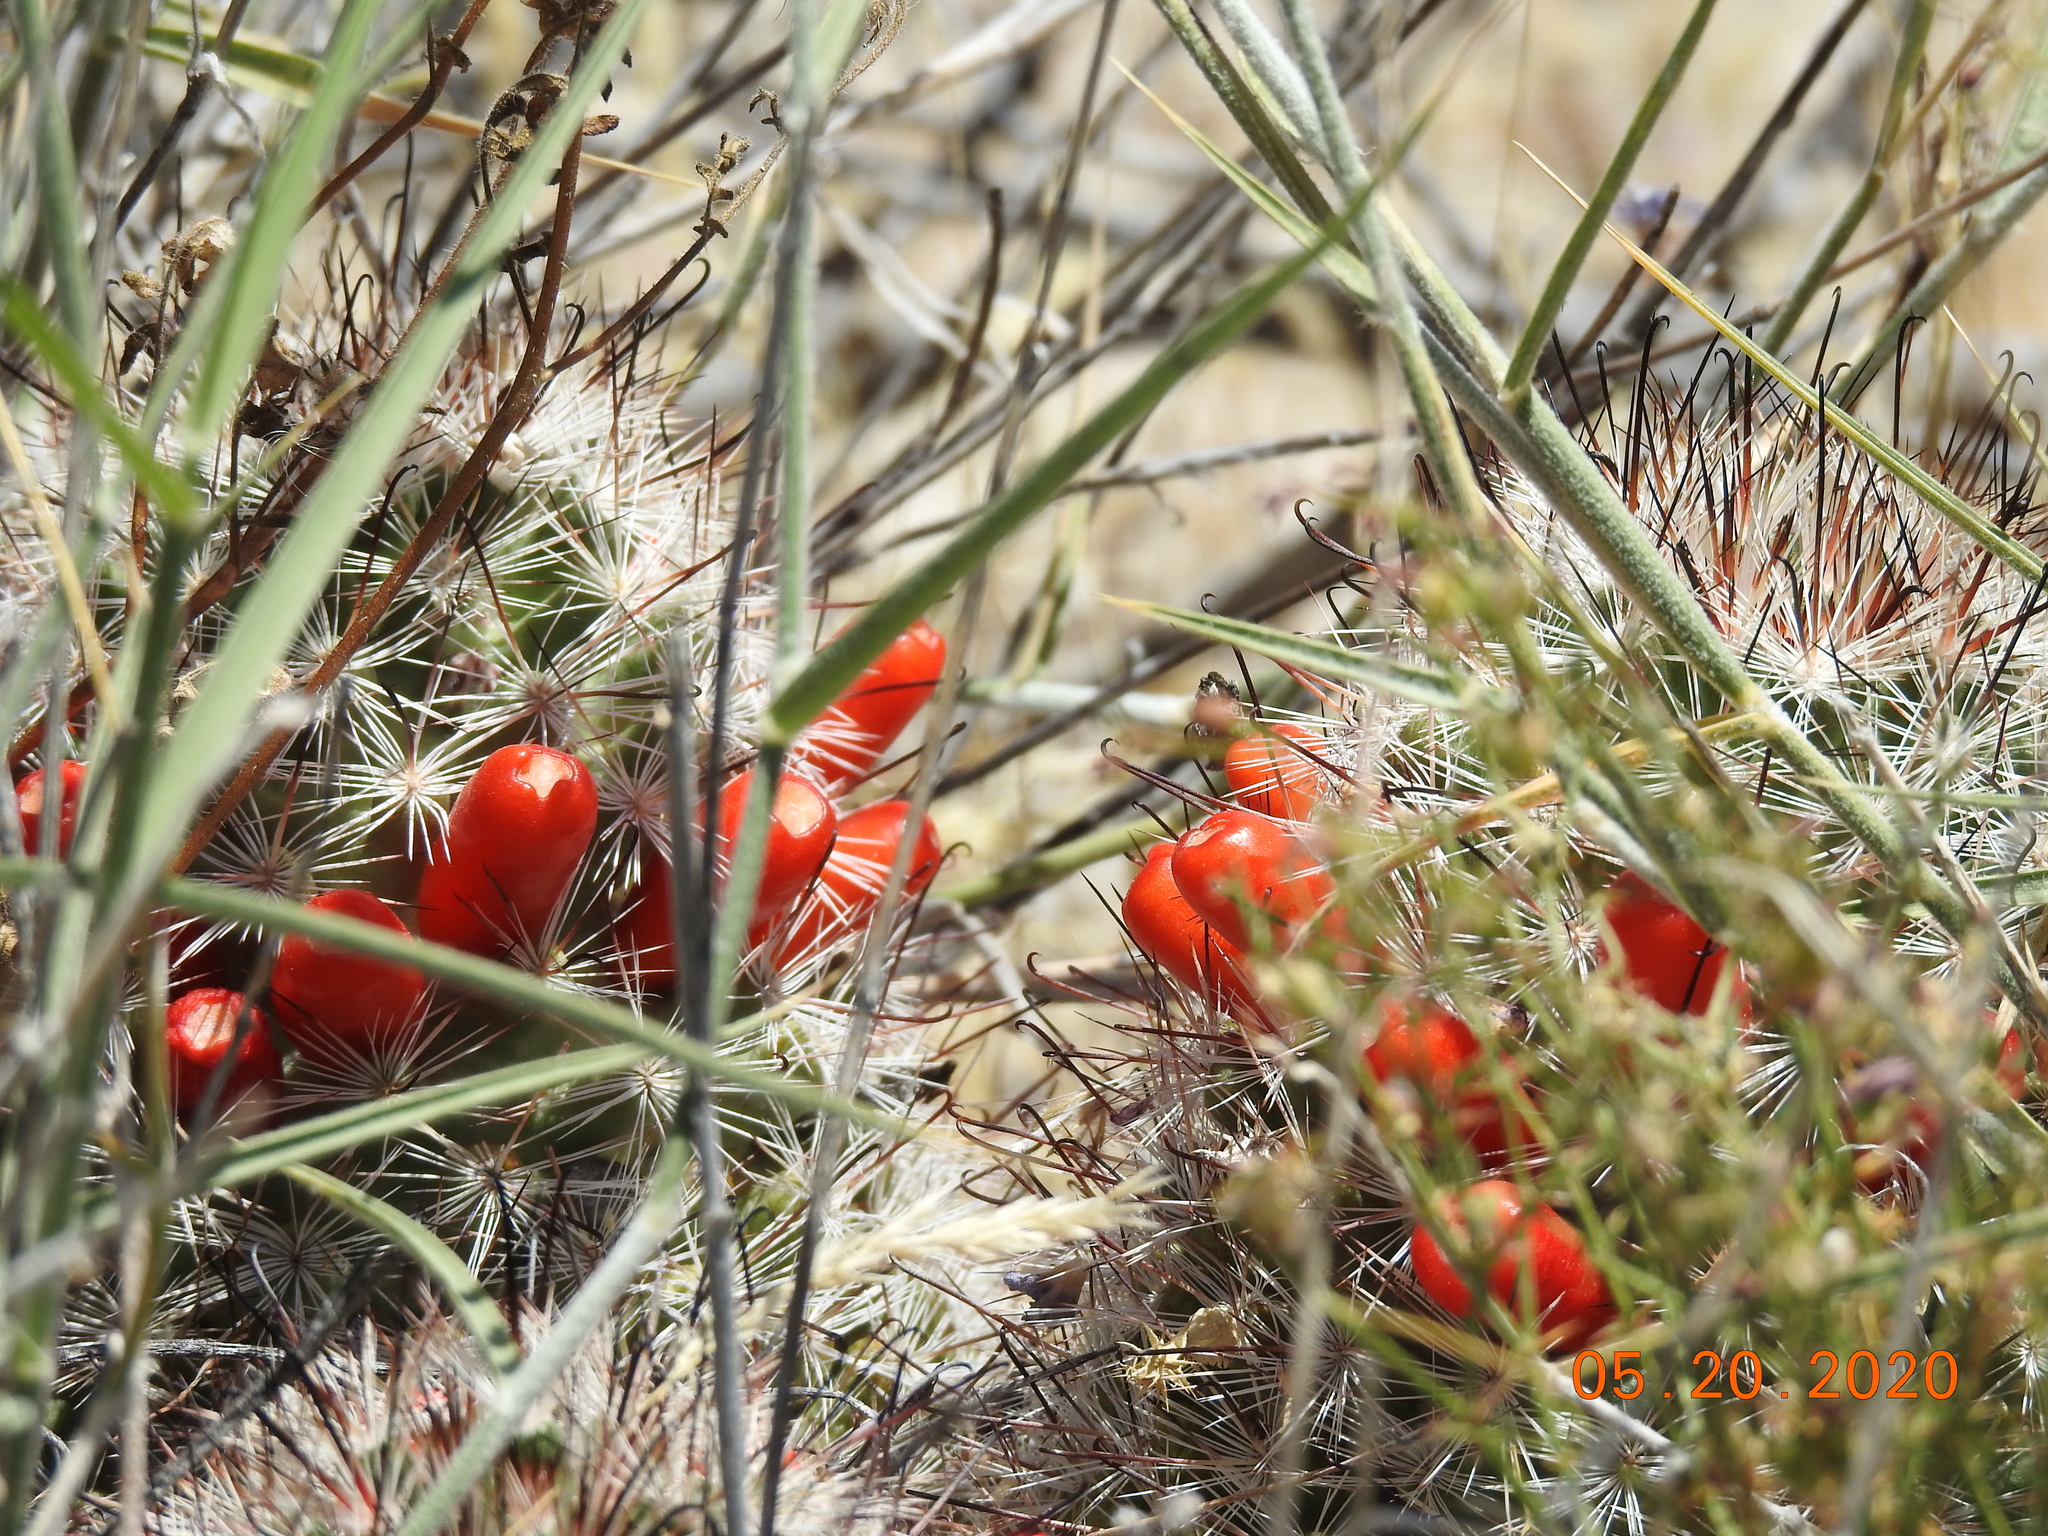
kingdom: Plantae
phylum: Tracheophyta
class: Magnoliopsida
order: Caryophyllales
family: Cactaceae
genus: Cochemiea
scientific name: Cochemiea tetrancistra
